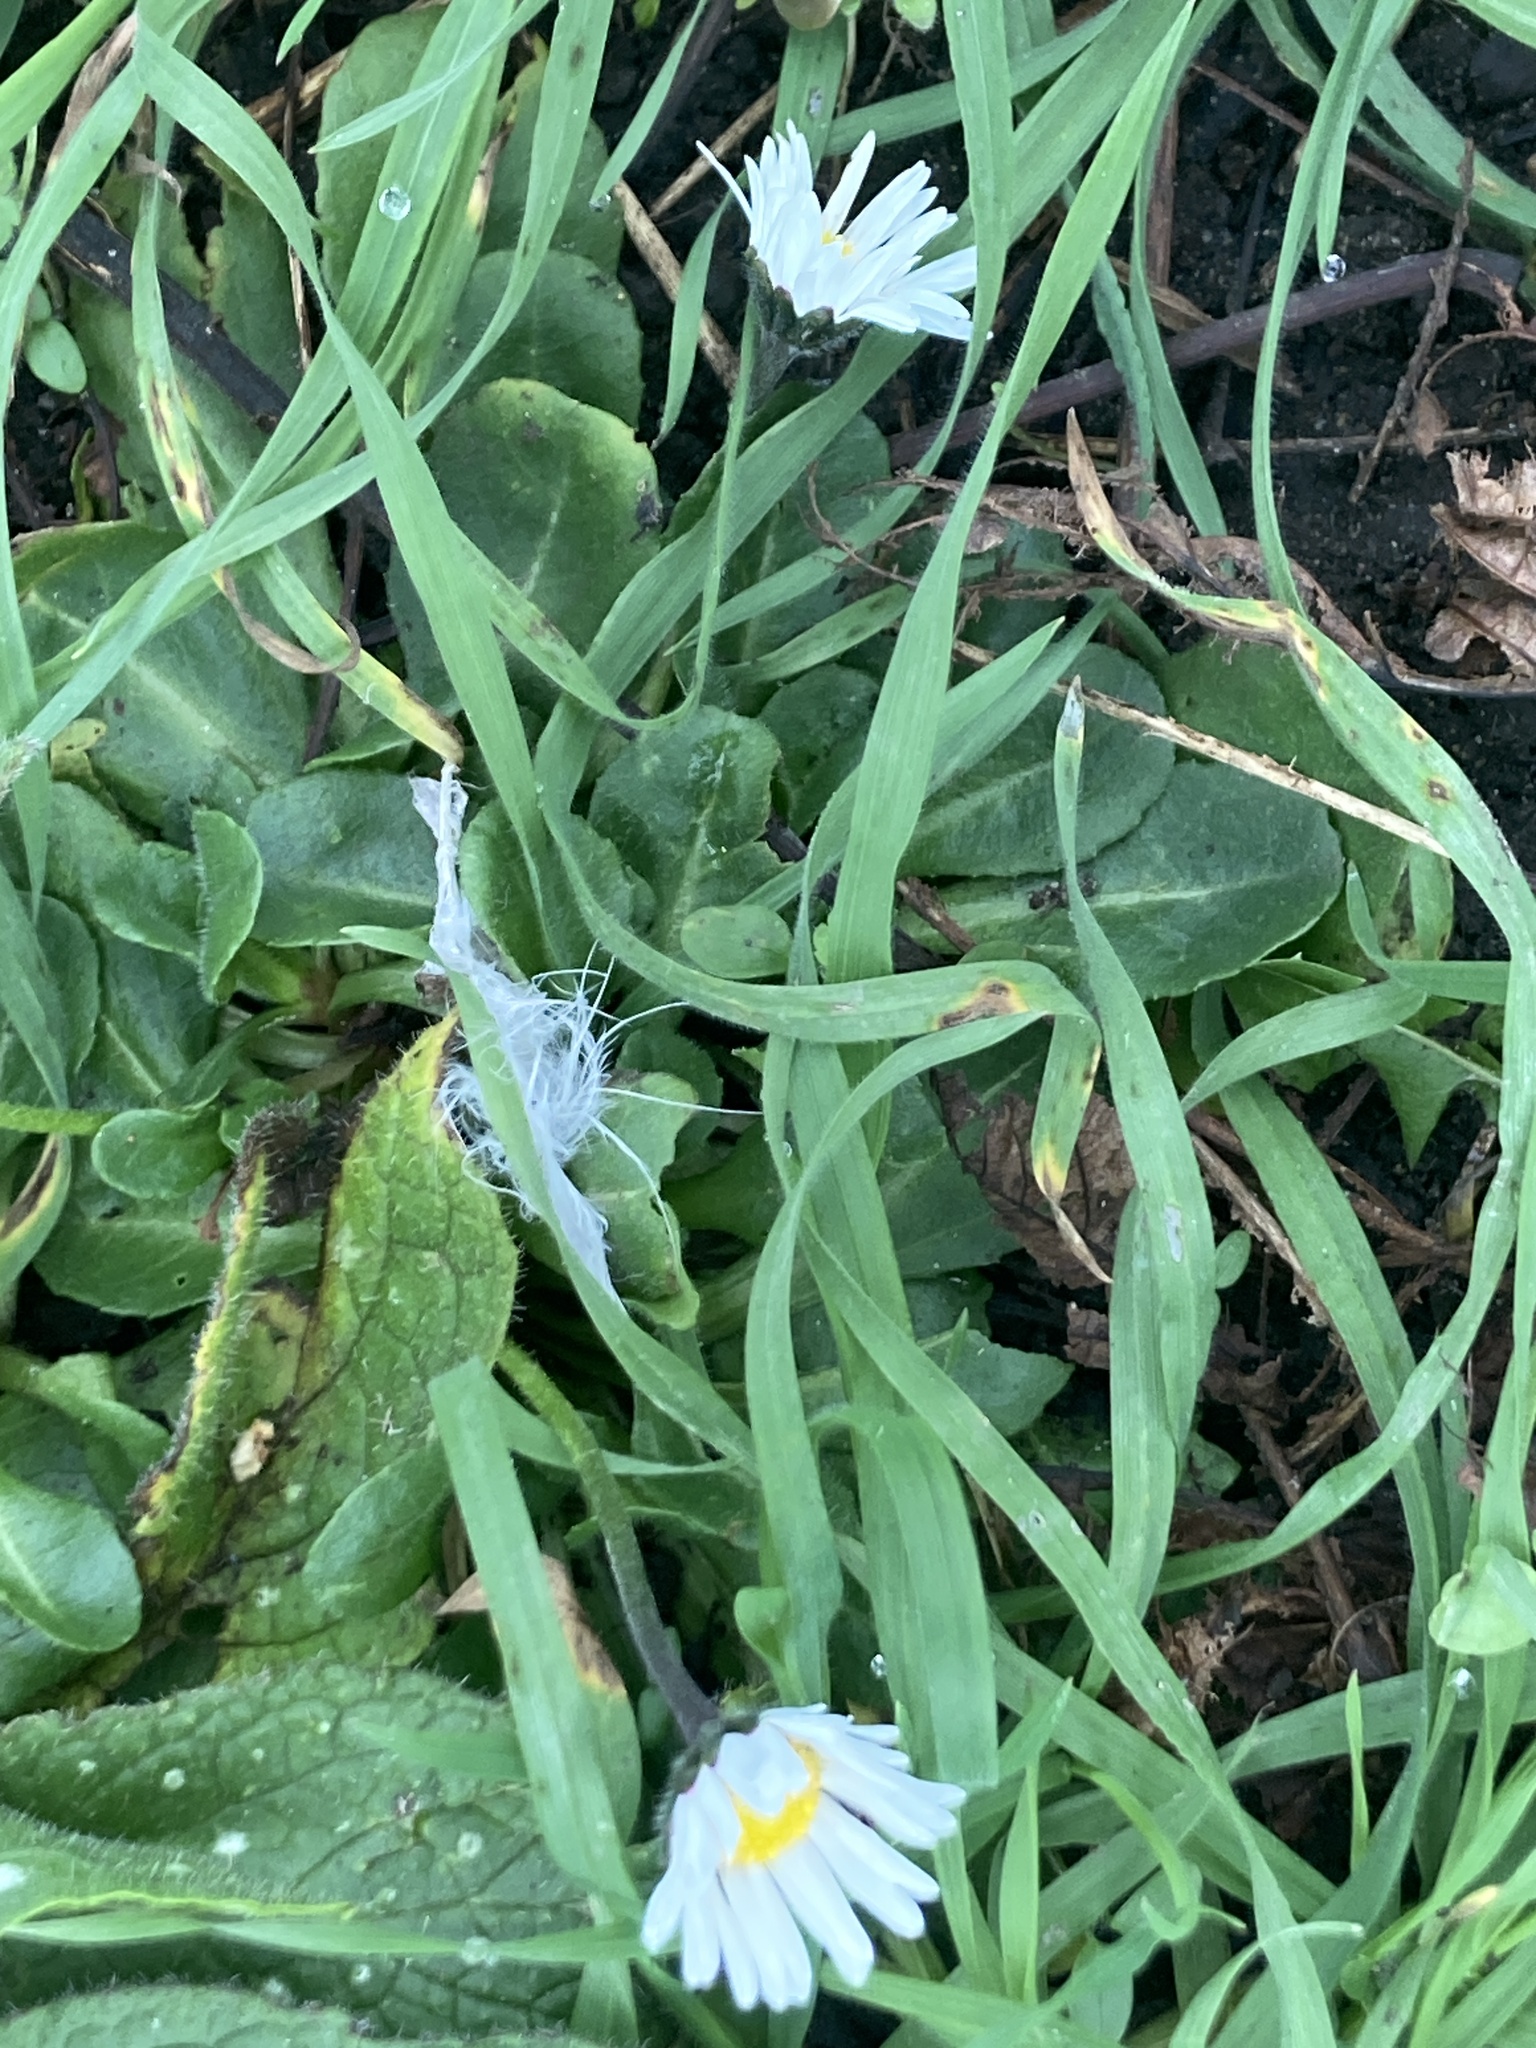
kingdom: Plantae
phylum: Tracheophyta
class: Magnoliopsida
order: Asterales
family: Asteraceae
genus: Bellis
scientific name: Bellis perennis
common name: Lawndaisy
